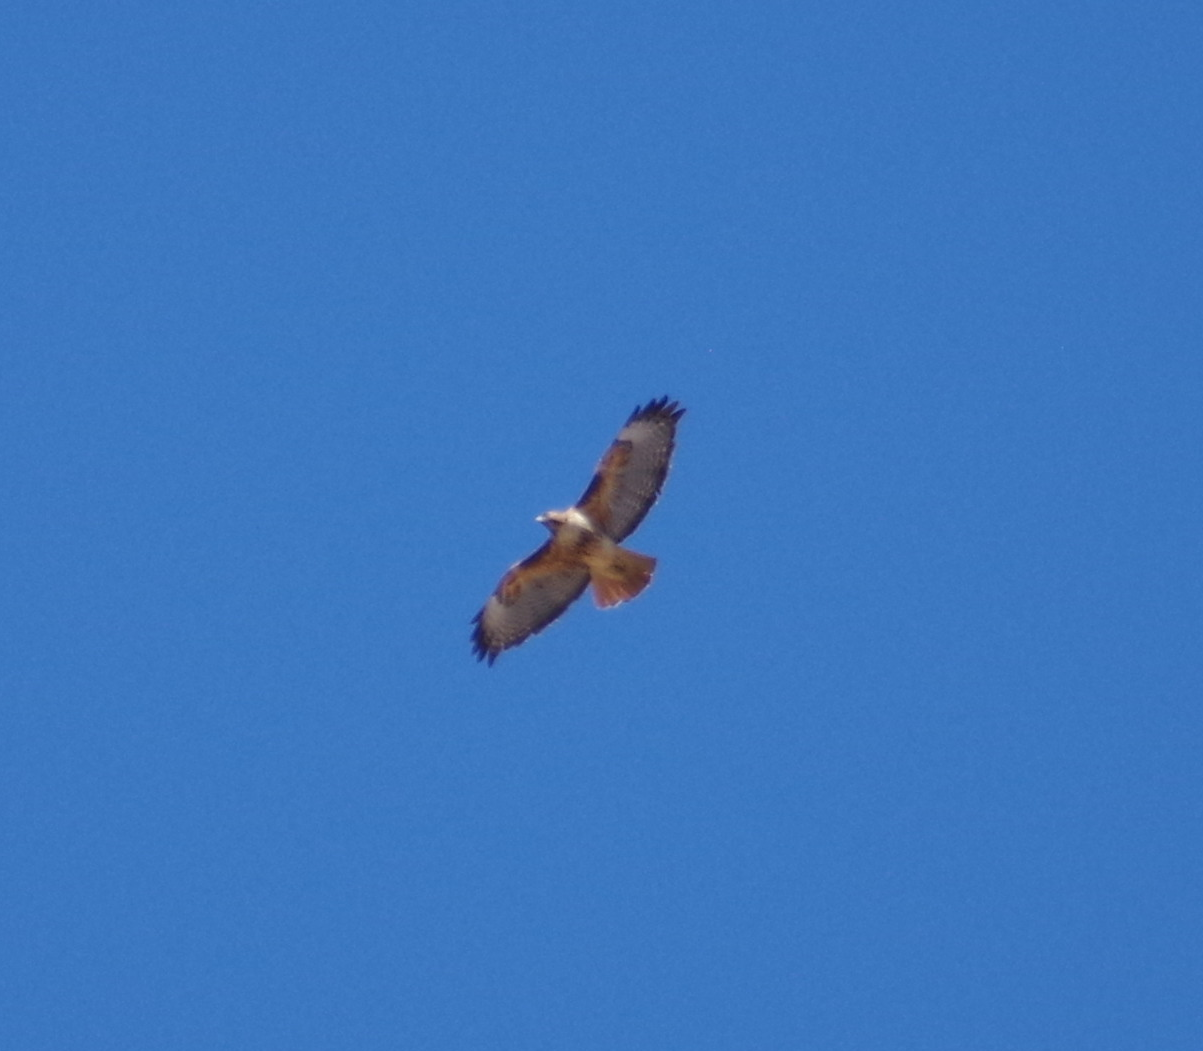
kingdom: Animalia
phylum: Chordata
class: Aves
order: Accipitriformes
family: Accipitridae
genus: Buteo
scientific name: Buteo jamaicensis
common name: Red-tailed hawk
